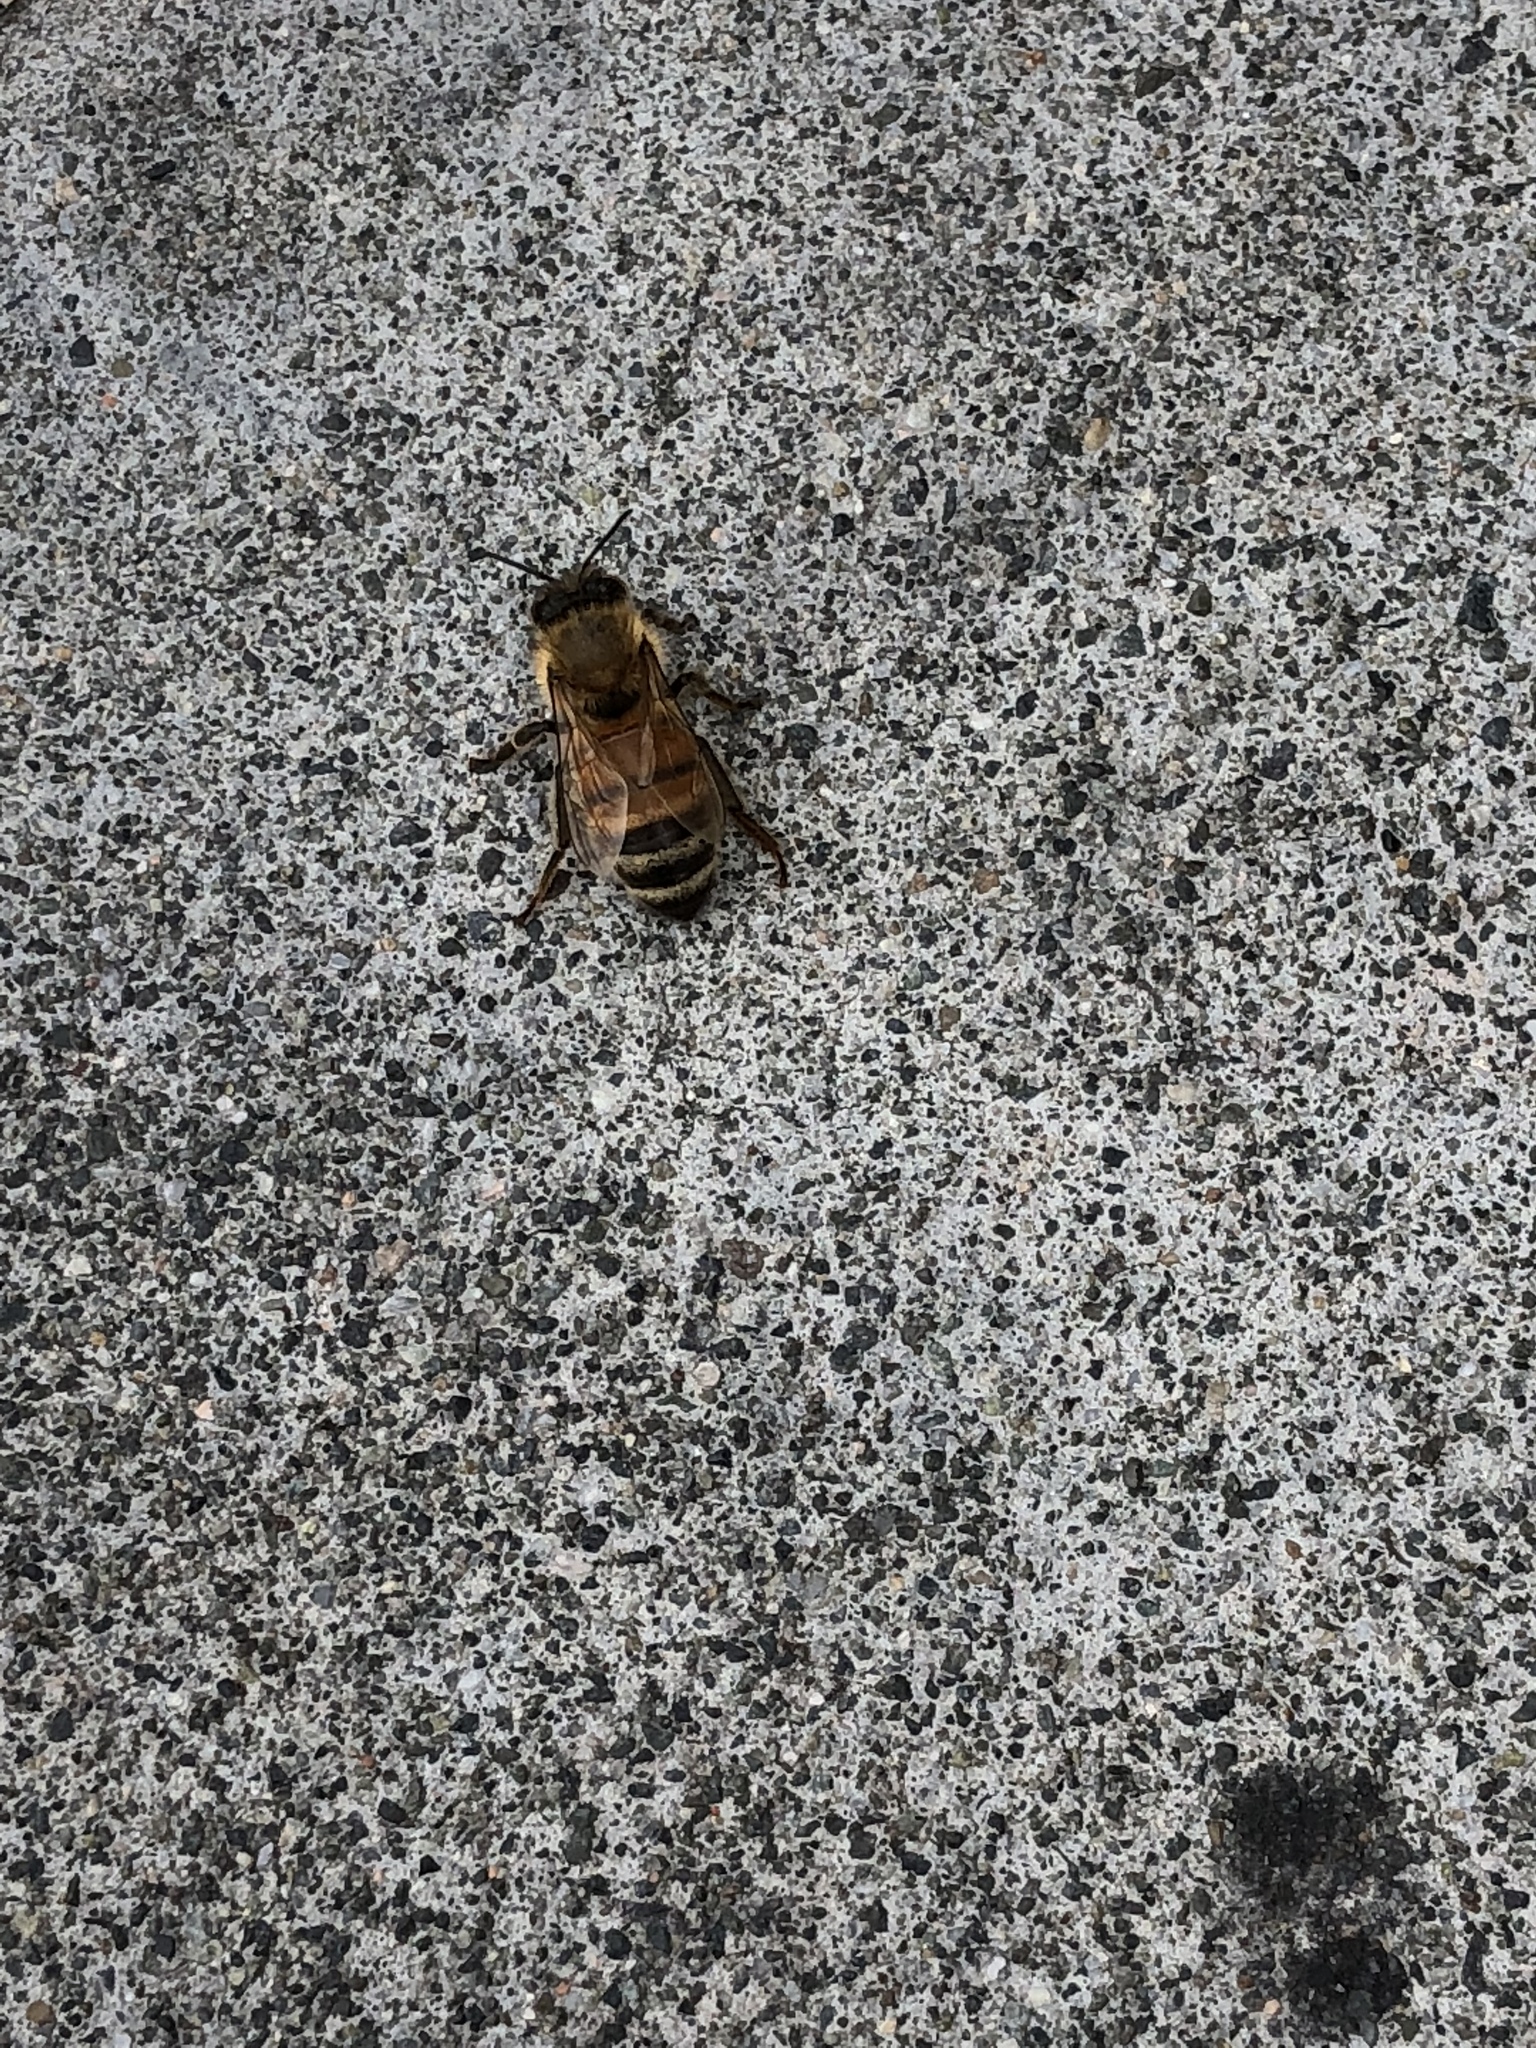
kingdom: Animalia
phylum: Arthropoda
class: Insecta
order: Hymenoptera
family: Apidae
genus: Apis
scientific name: Apis mellifera
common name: Honey bee
